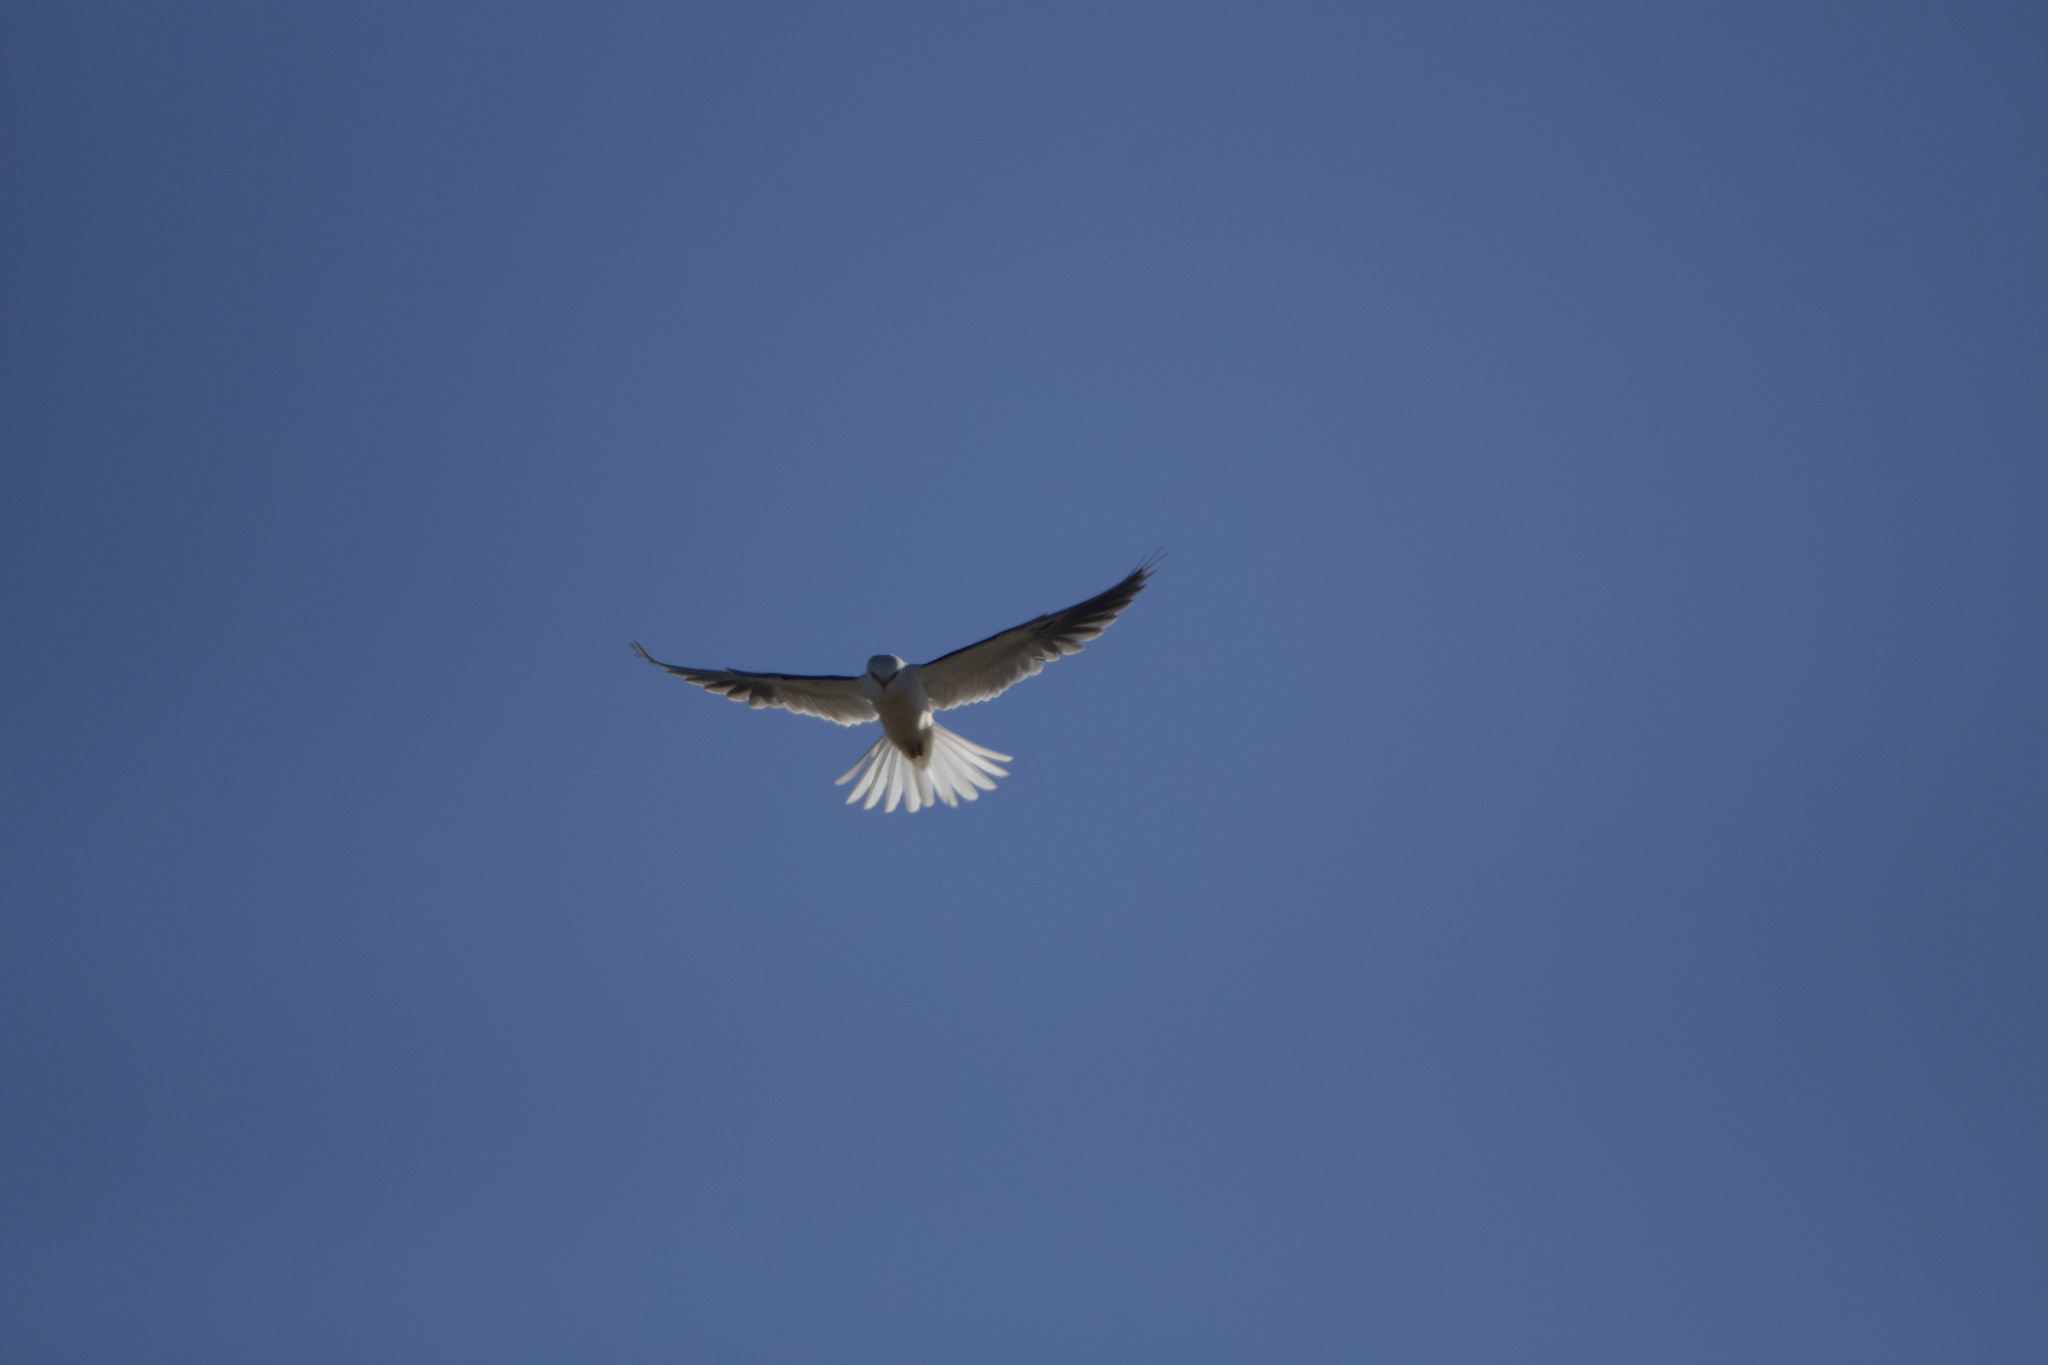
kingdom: Animalia
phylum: Chordata
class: Aves
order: Accipitriformes
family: Accipitridae
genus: Elanus
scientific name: Elanus leucurus
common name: White-tailed kite
